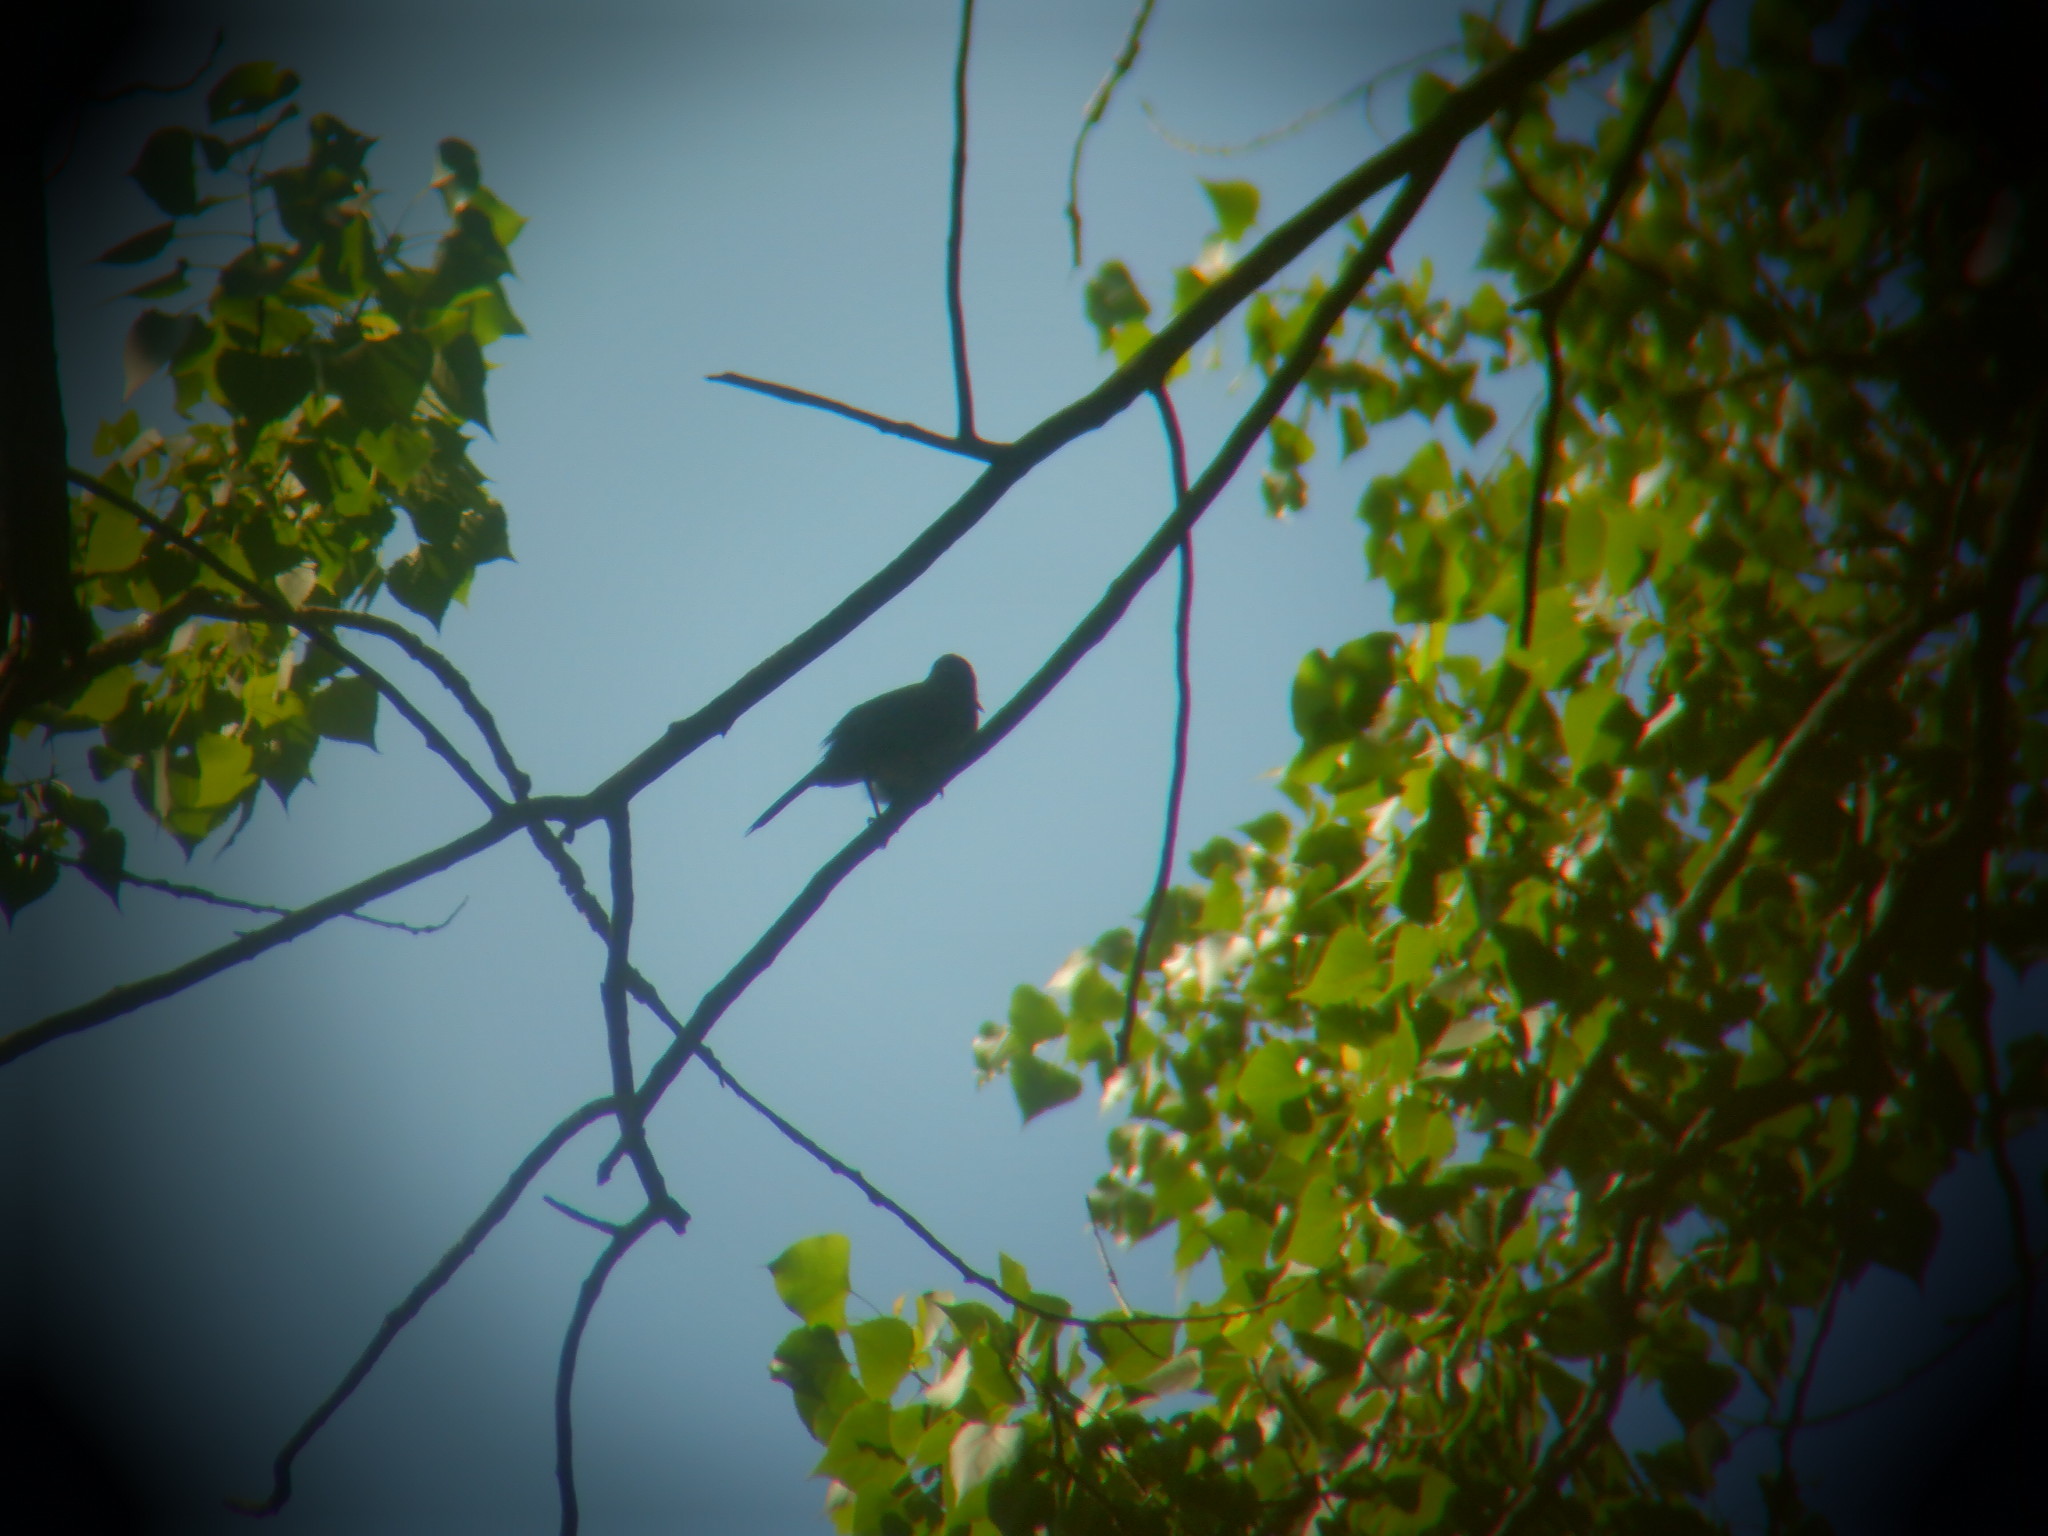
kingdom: Animalia
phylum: Chordata
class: Aves
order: Passeriformes
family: Mimidae
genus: Dumetella
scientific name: Dumetella carolinensis
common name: Gray catbird
